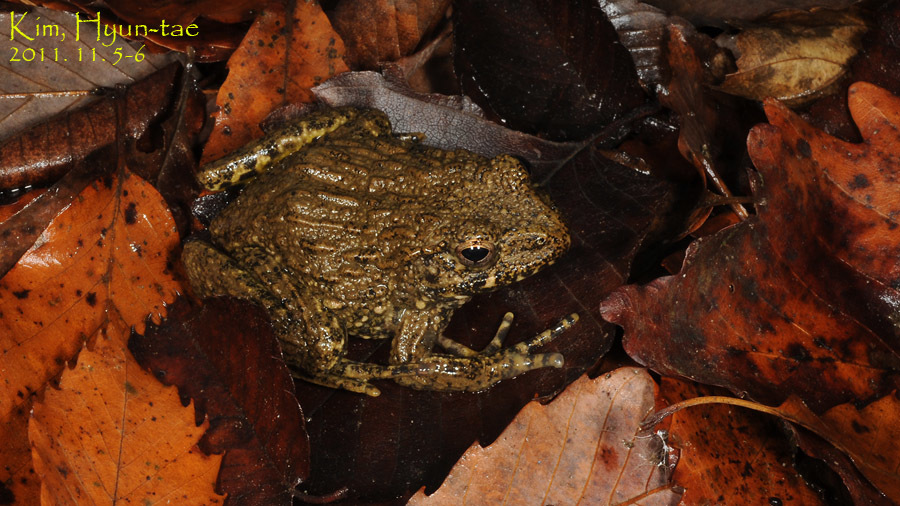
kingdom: Animalia
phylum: Chordata
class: Amphibia
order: Anura
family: Ranidae
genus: Glandirana
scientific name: Glandirana emeljanovi
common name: Northeast china rough-skinned frog
